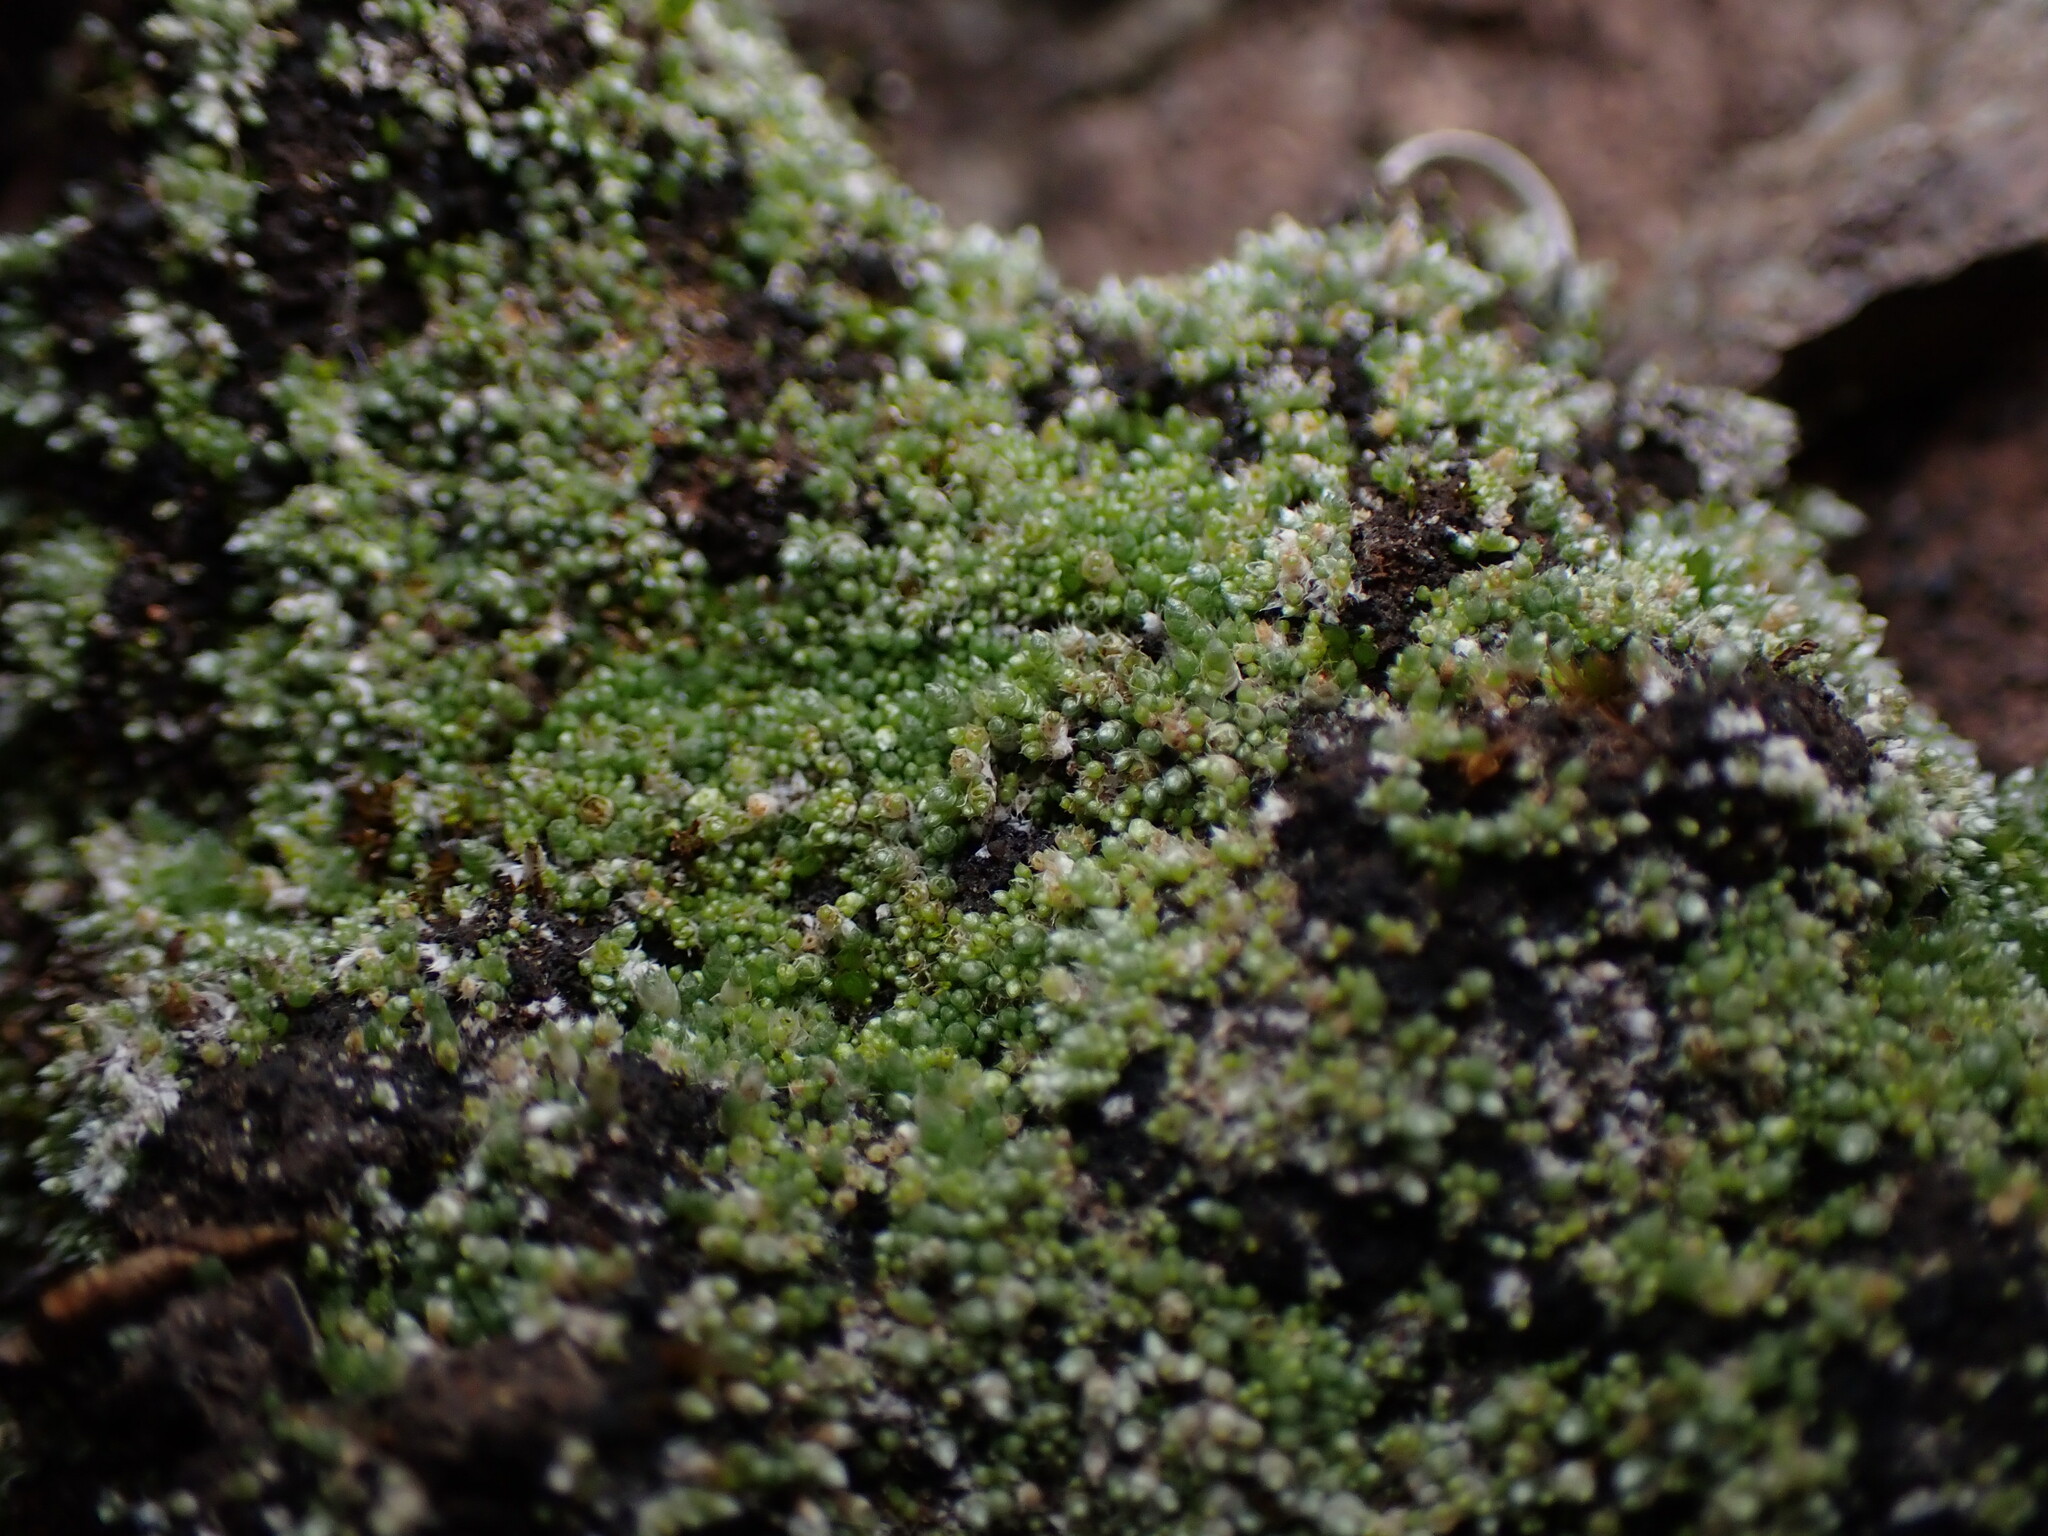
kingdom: Plantae
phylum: Bryophyta
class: Bryopsida
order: Bryales
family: Bryaceae
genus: Bryum
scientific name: Bryum argenteum
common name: Silver-moss
